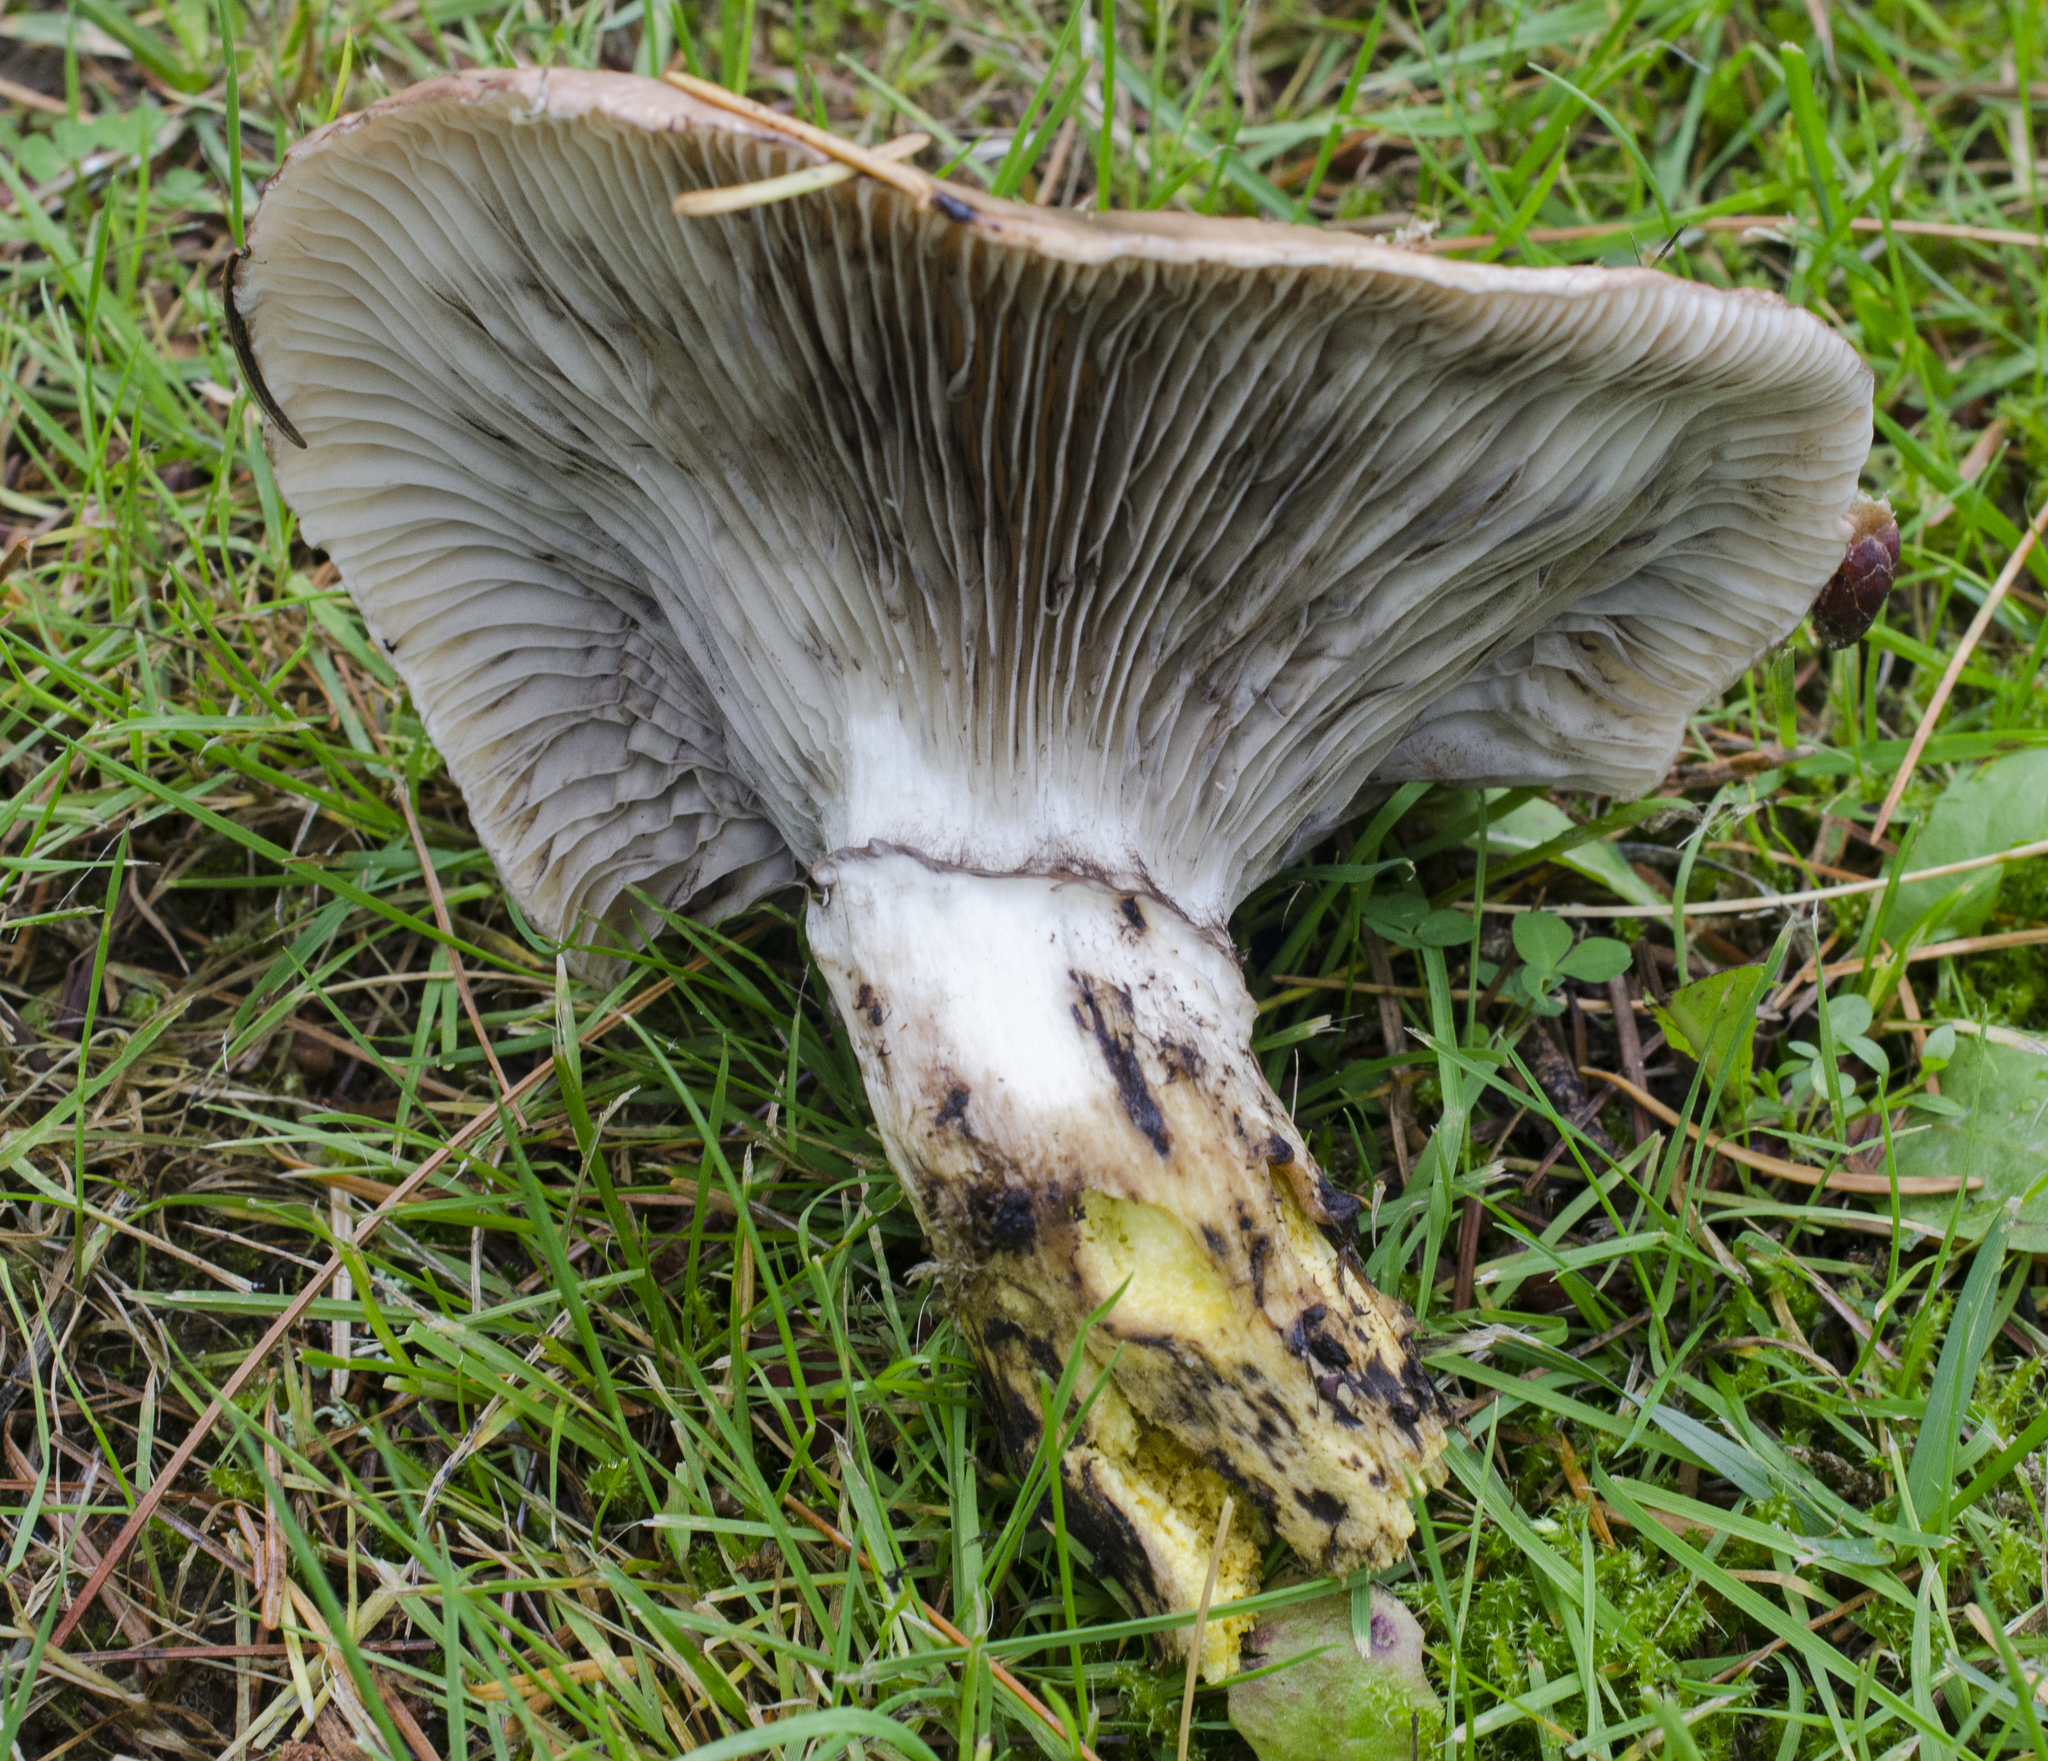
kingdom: Fungi
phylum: Basidiomycota
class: Agaricomycetes
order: Boletales
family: Gomphidiaceae
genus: Gomphidius
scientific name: Gomphidius glutinosus
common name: Slimy spike
